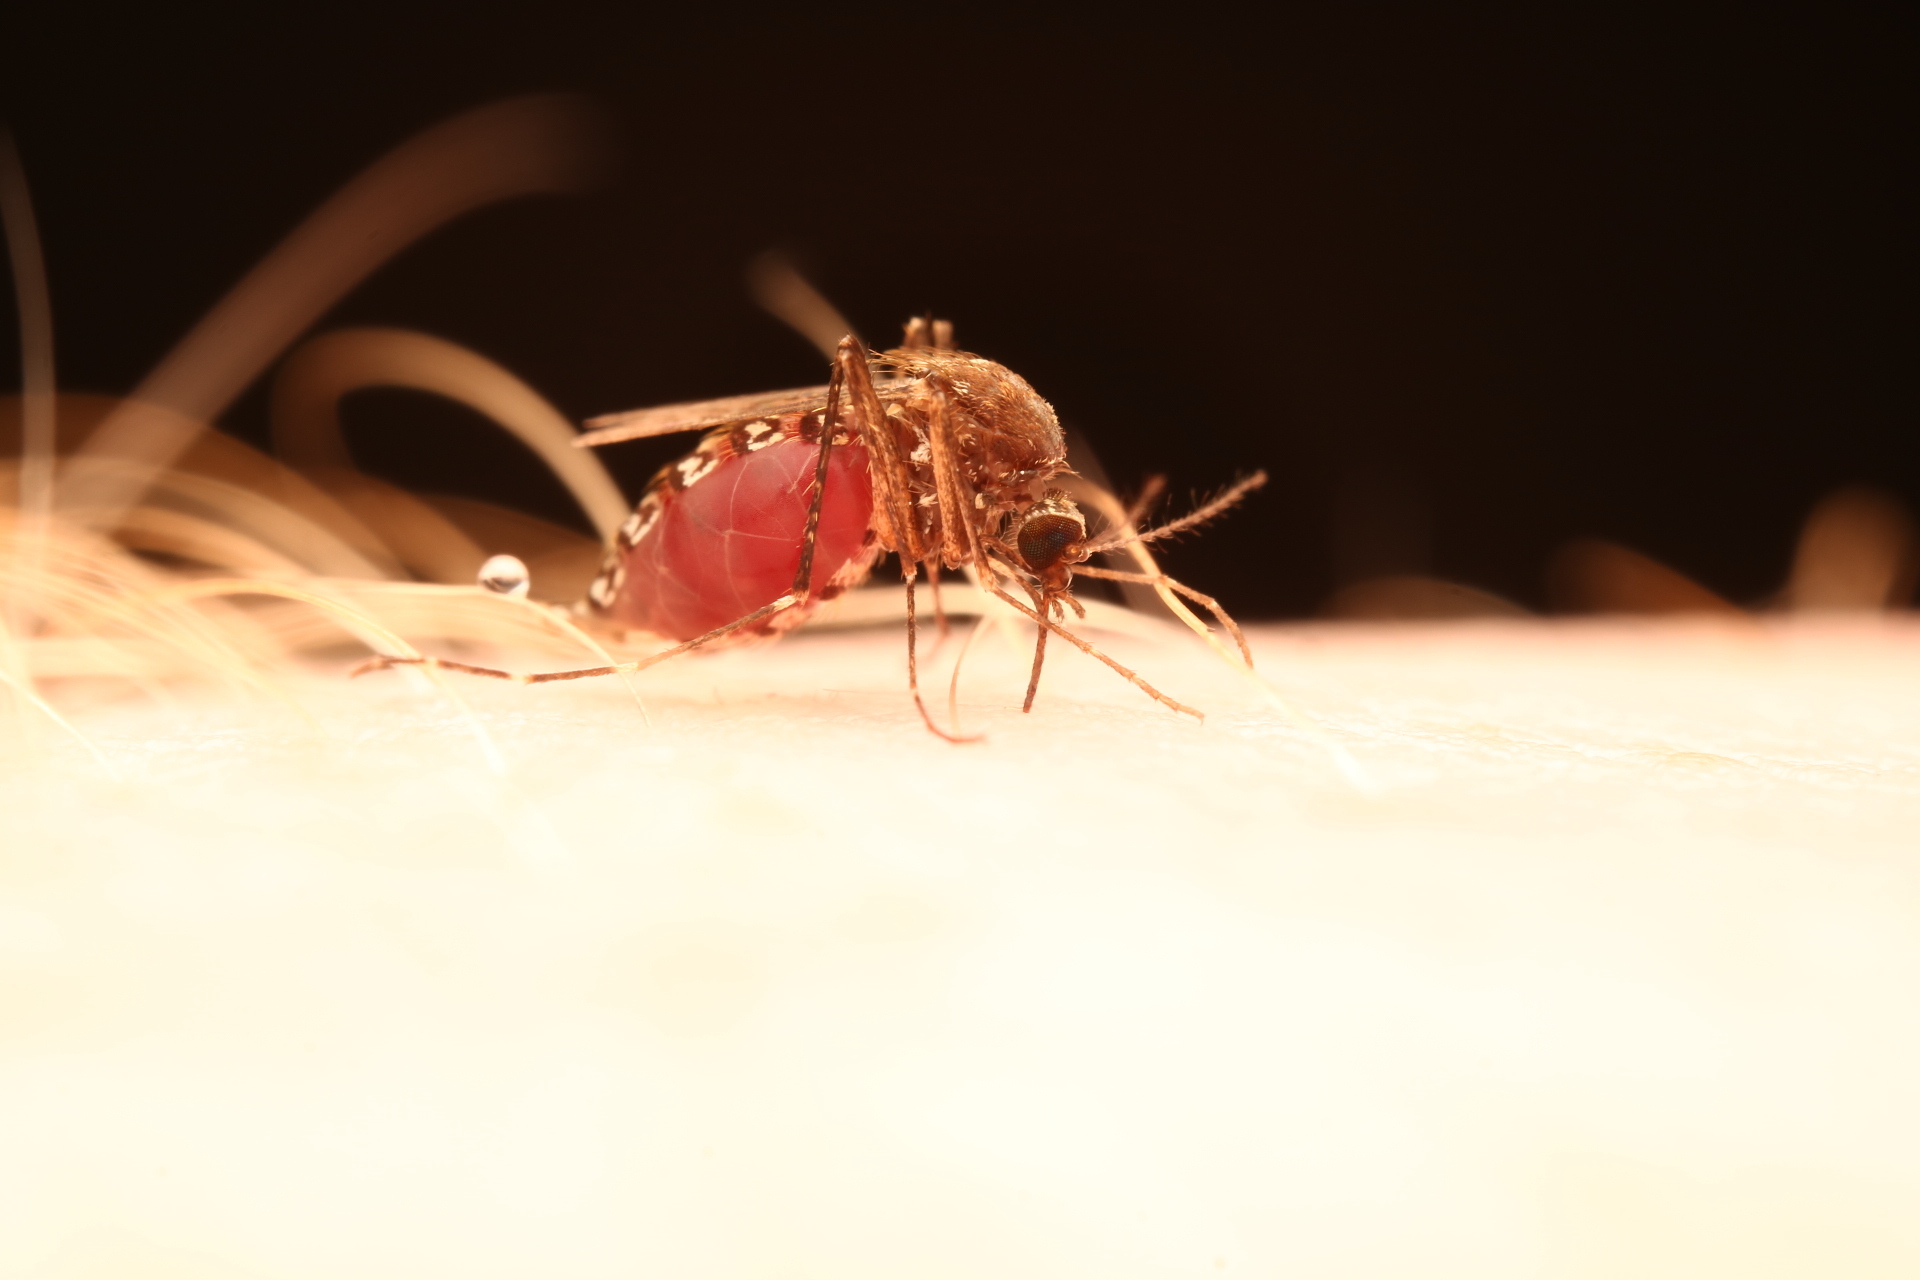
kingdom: Animalia
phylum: Arthropoda
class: Insecta
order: Diptera
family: Culicidae
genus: Aedes
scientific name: Aedes taeniorhynchus
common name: Black salt marsh mosquito
